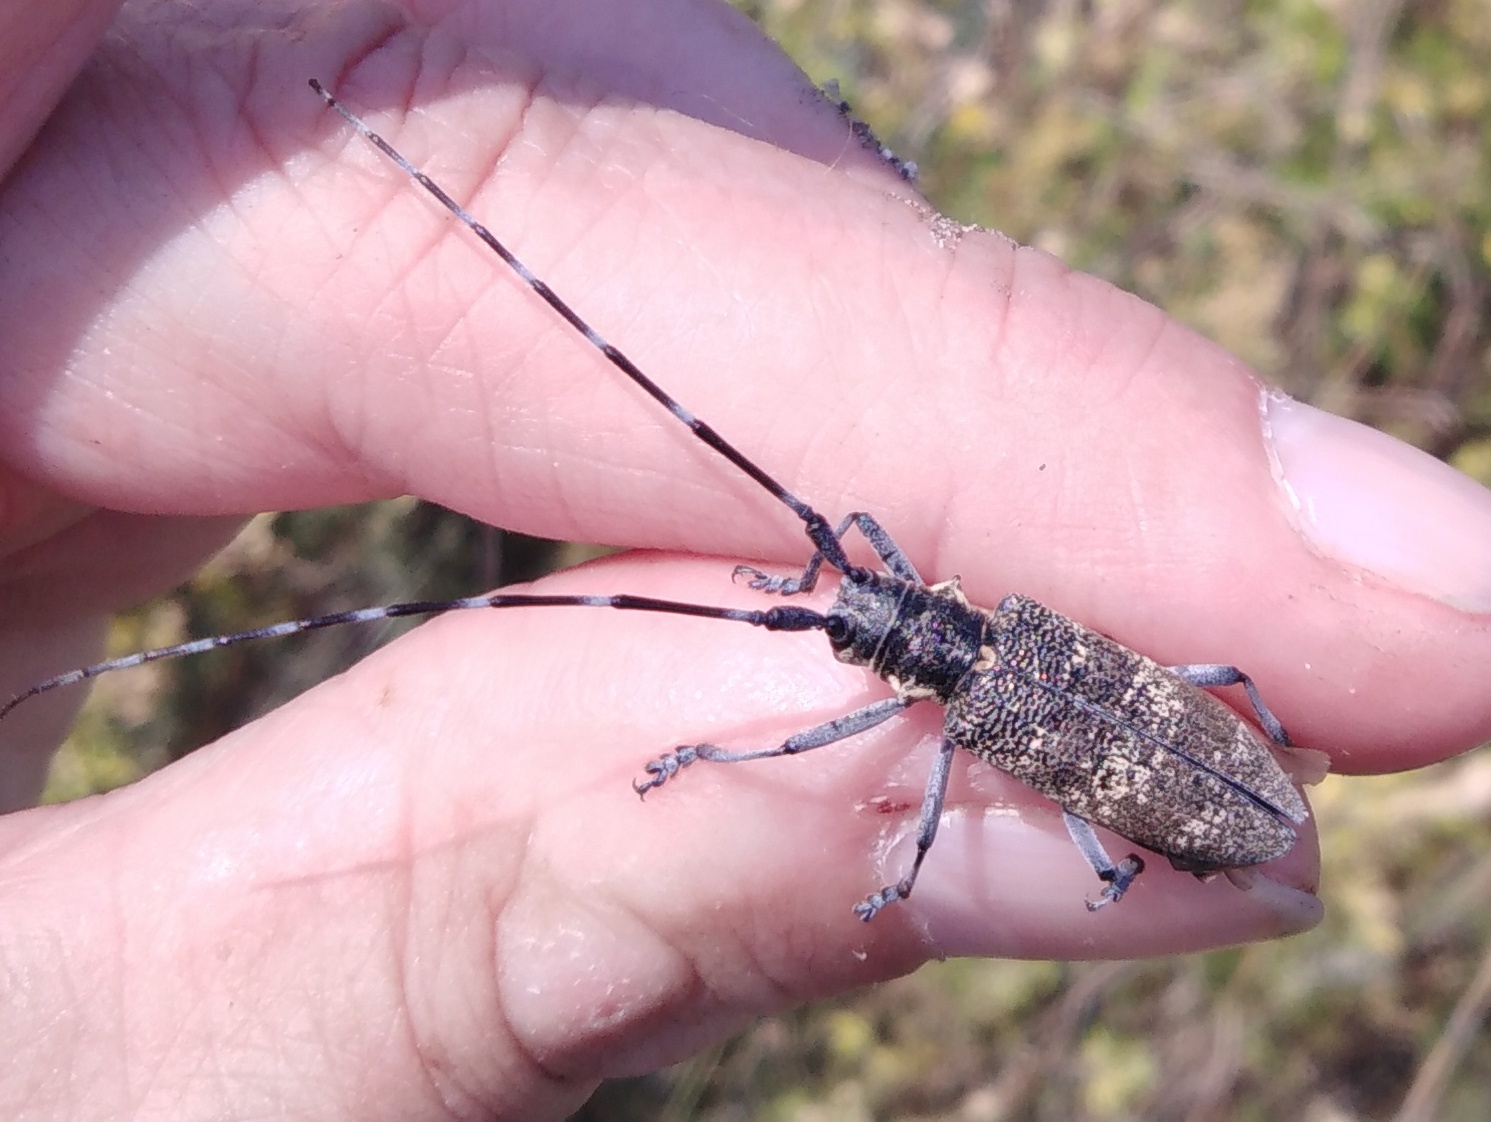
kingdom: Animalia
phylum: Arthropoda
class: Insecta
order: Coleoptera
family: Cerambycidae
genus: Monochamus
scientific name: Monochamus galloprovincialis
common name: Pine sawyer
